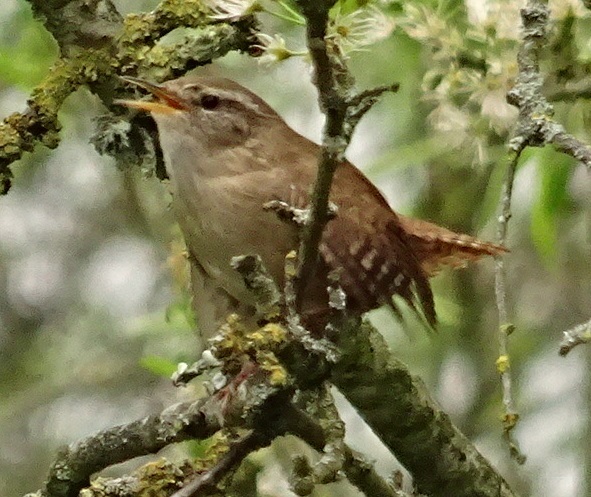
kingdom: Animalia
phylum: Chordata
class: Aves
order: Passeriformes
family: Troglodytidae
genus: Troglodytes
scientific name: Troglodytes troglodytes
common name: Eurasian wren
